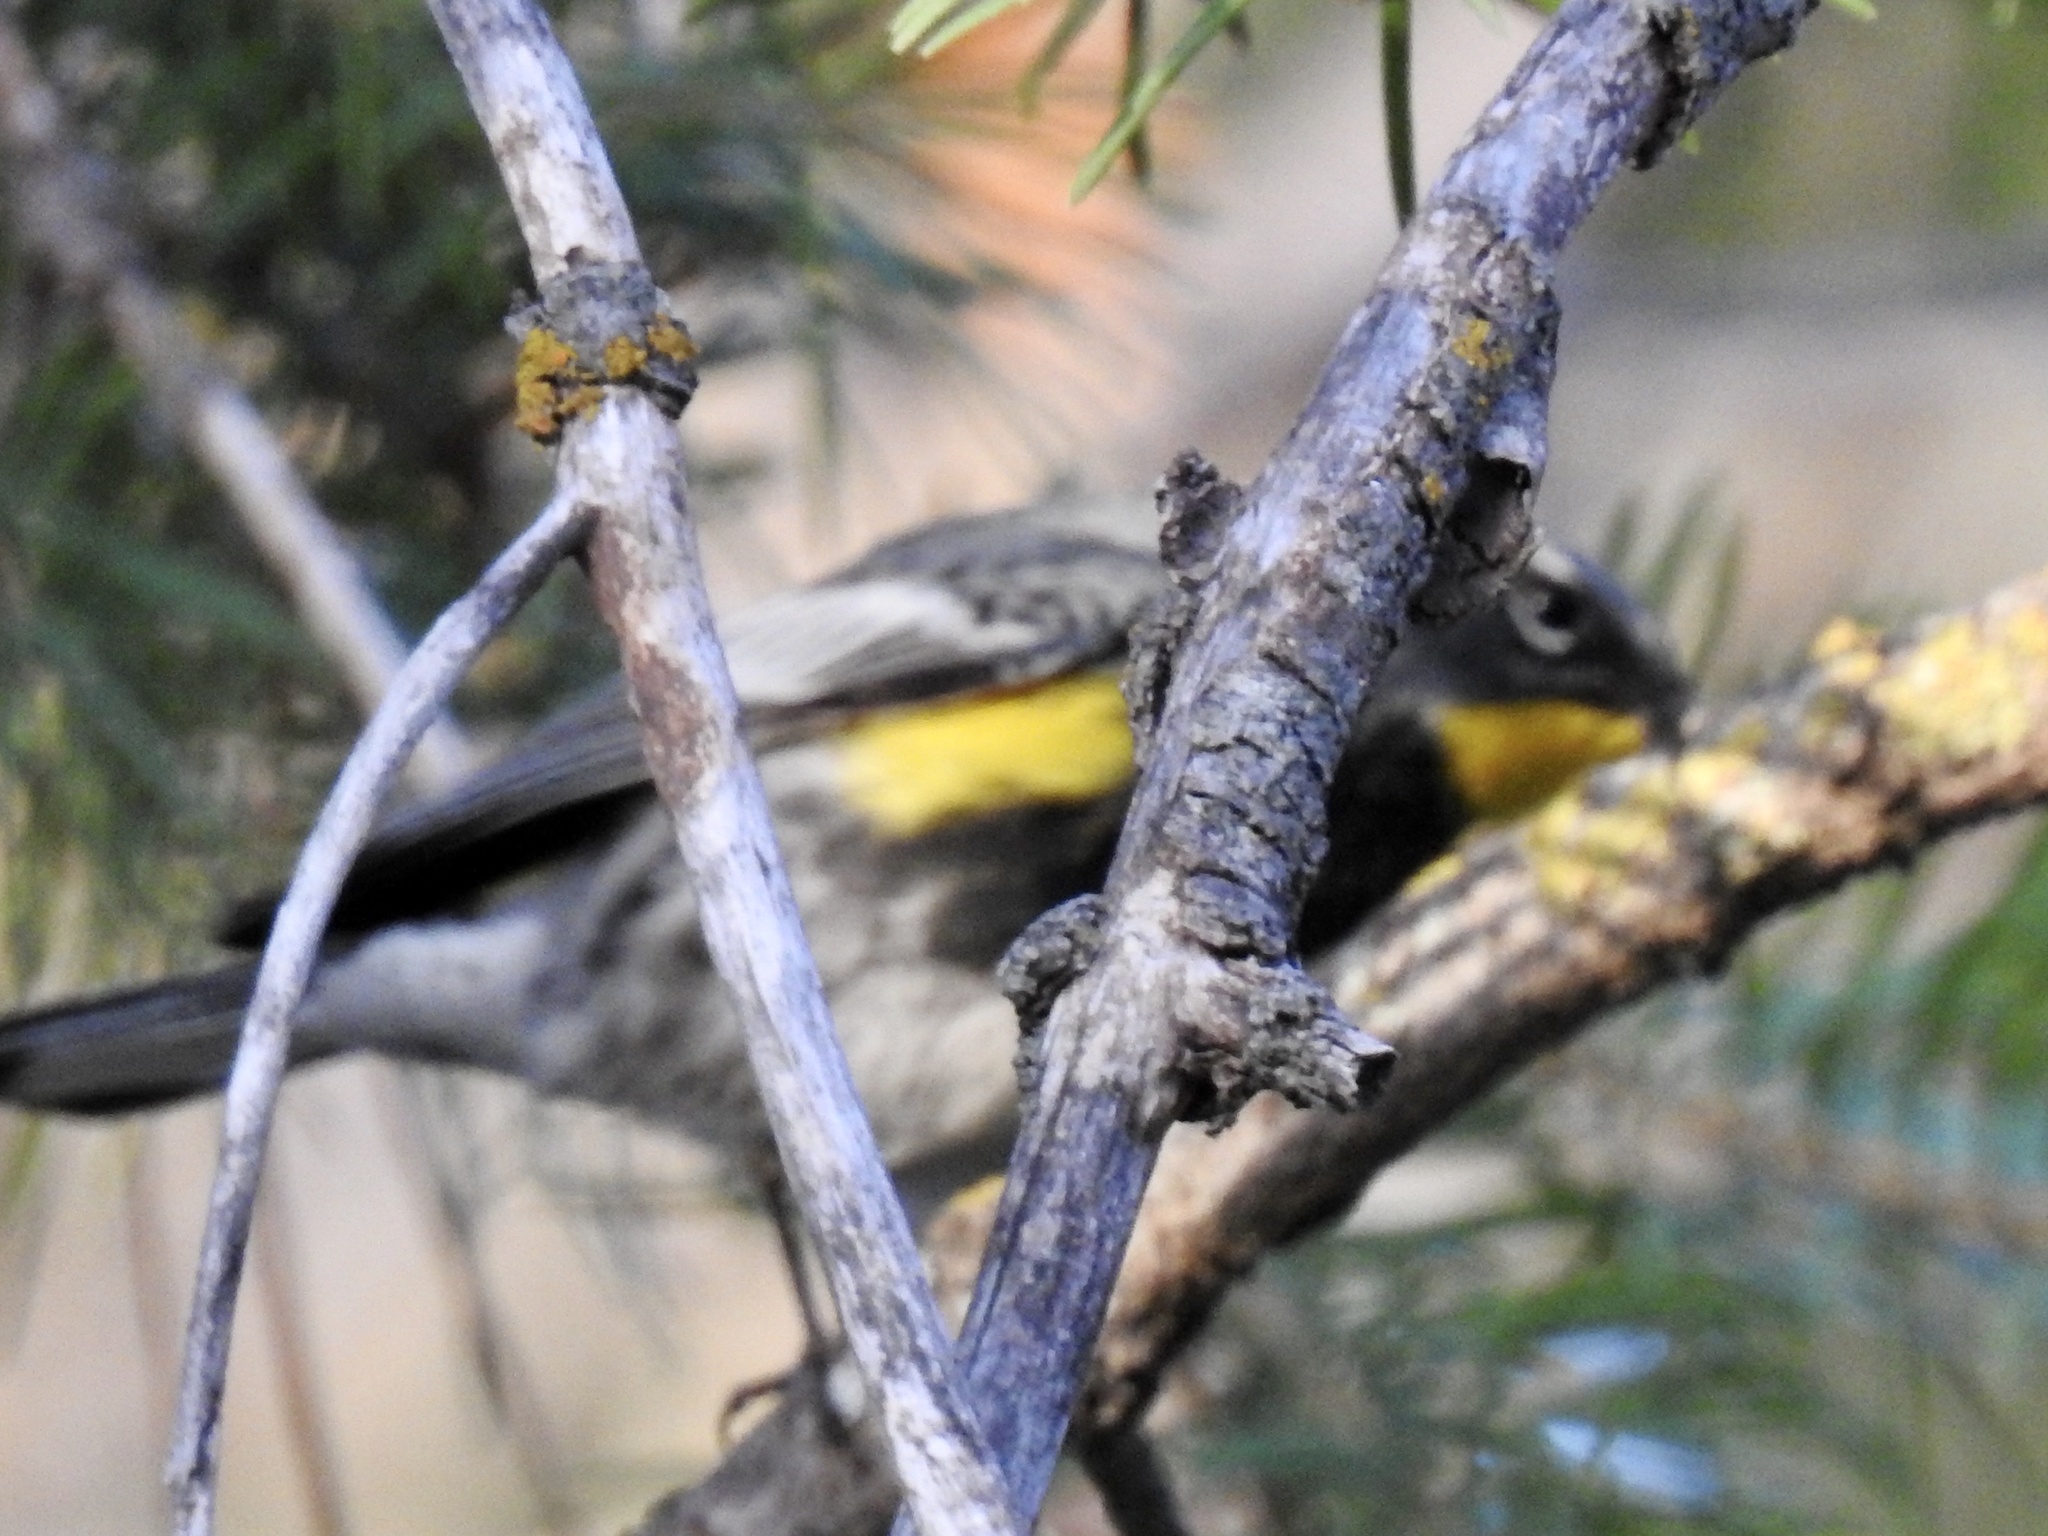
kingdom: Animalia
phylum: Chordata
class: Aves
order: Passeriformes
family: Parulidae
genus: Setophaga
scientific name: Setophaga coronata
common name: Myrtle warbler
